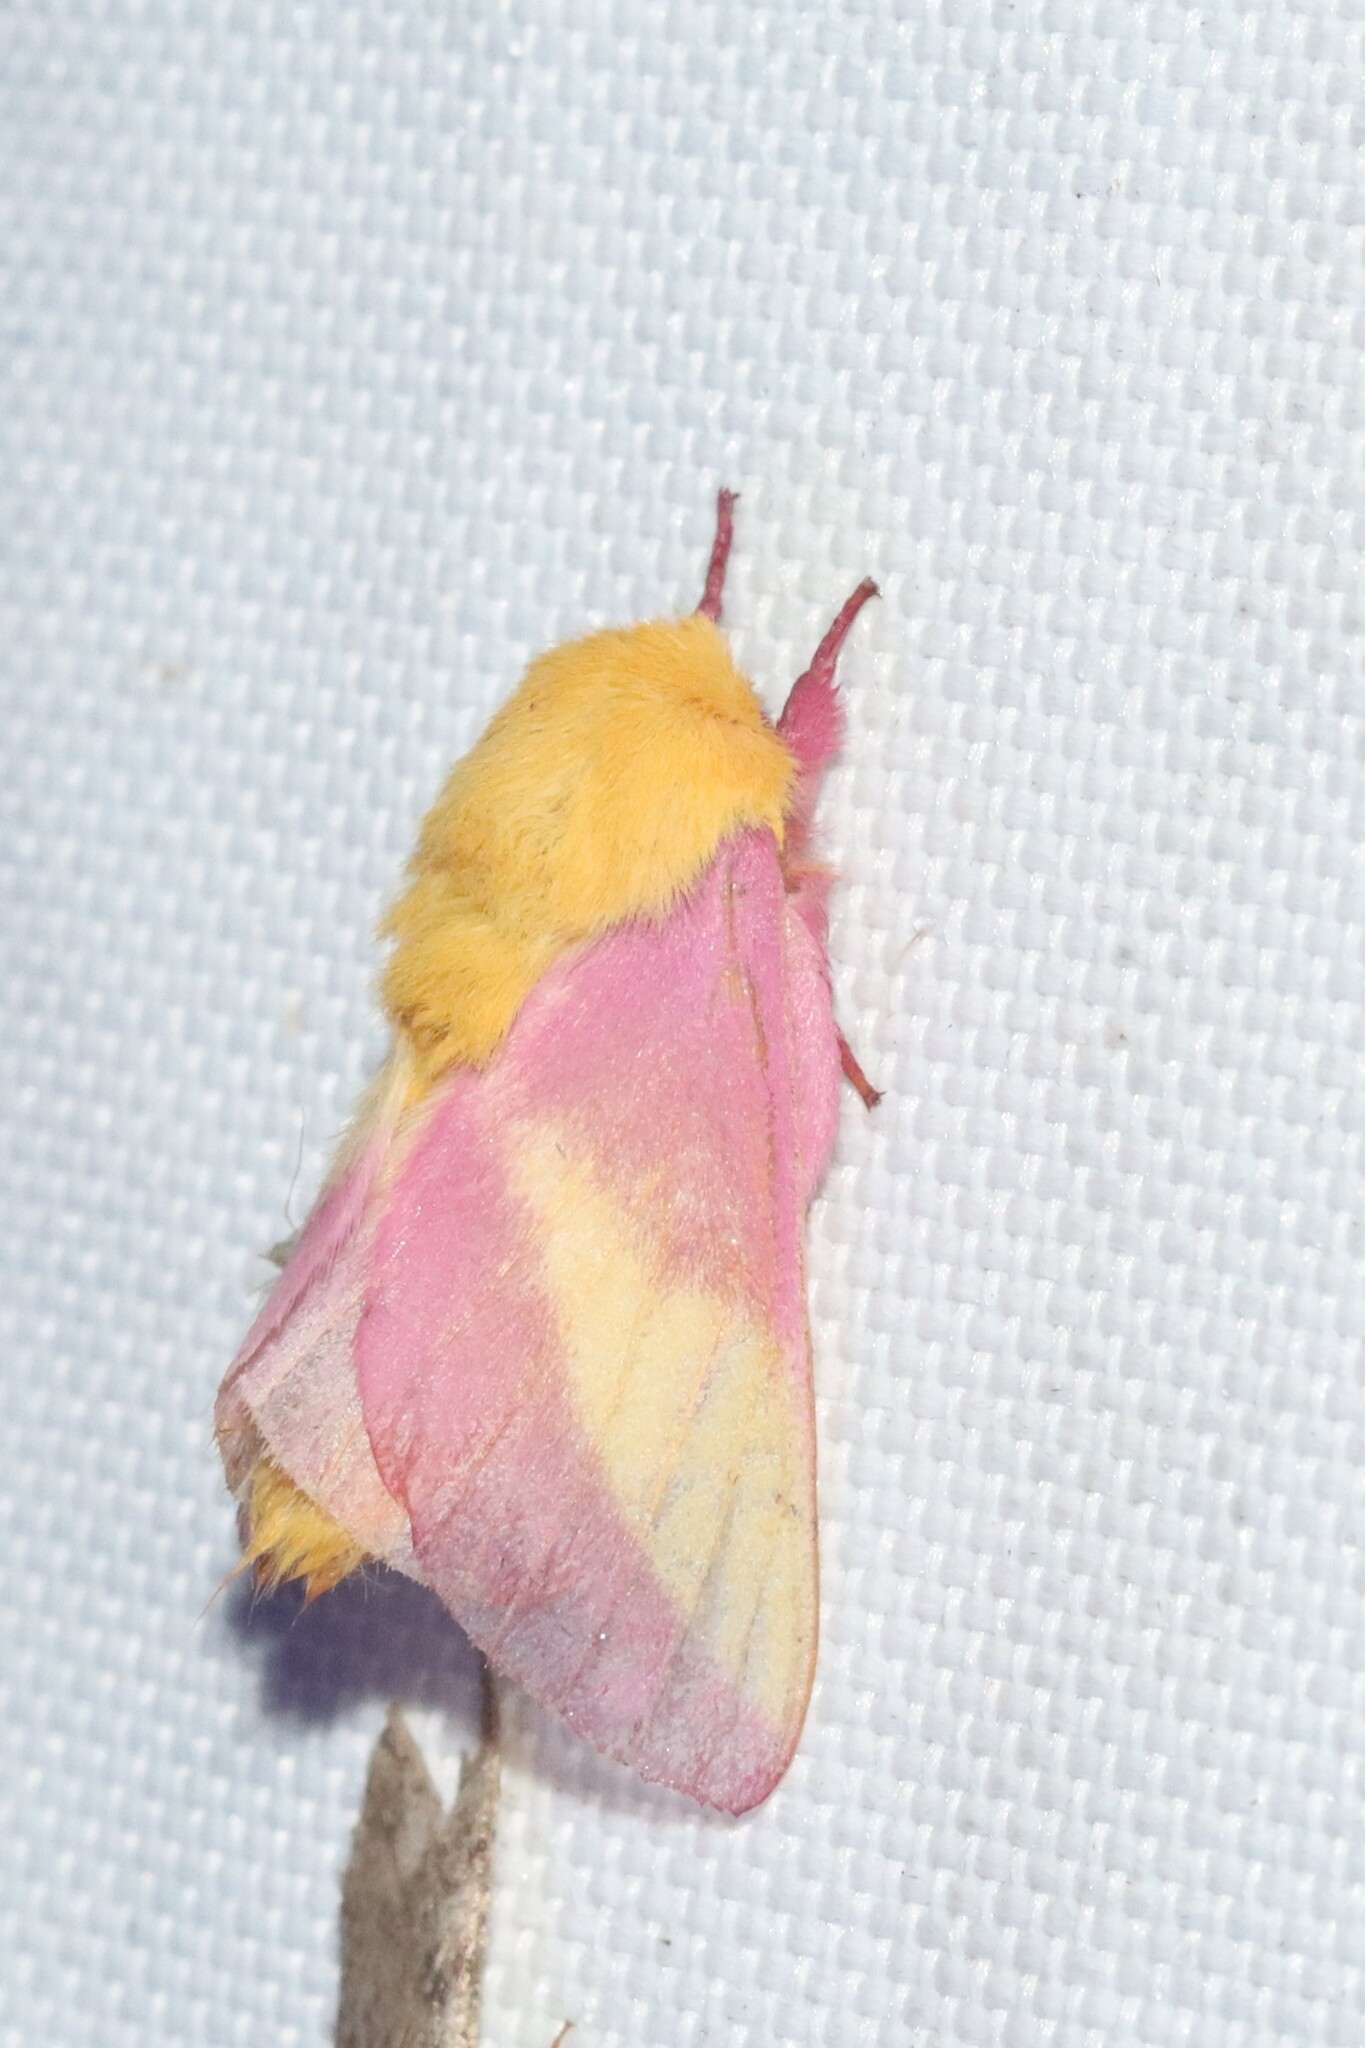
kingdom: Animalia
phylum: Arthropoda
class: Insecta
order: Lepidoptera
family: Saturniidae
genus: Dryocampa
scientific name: Dryocampa rubicunda
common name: Rosy maple moth
